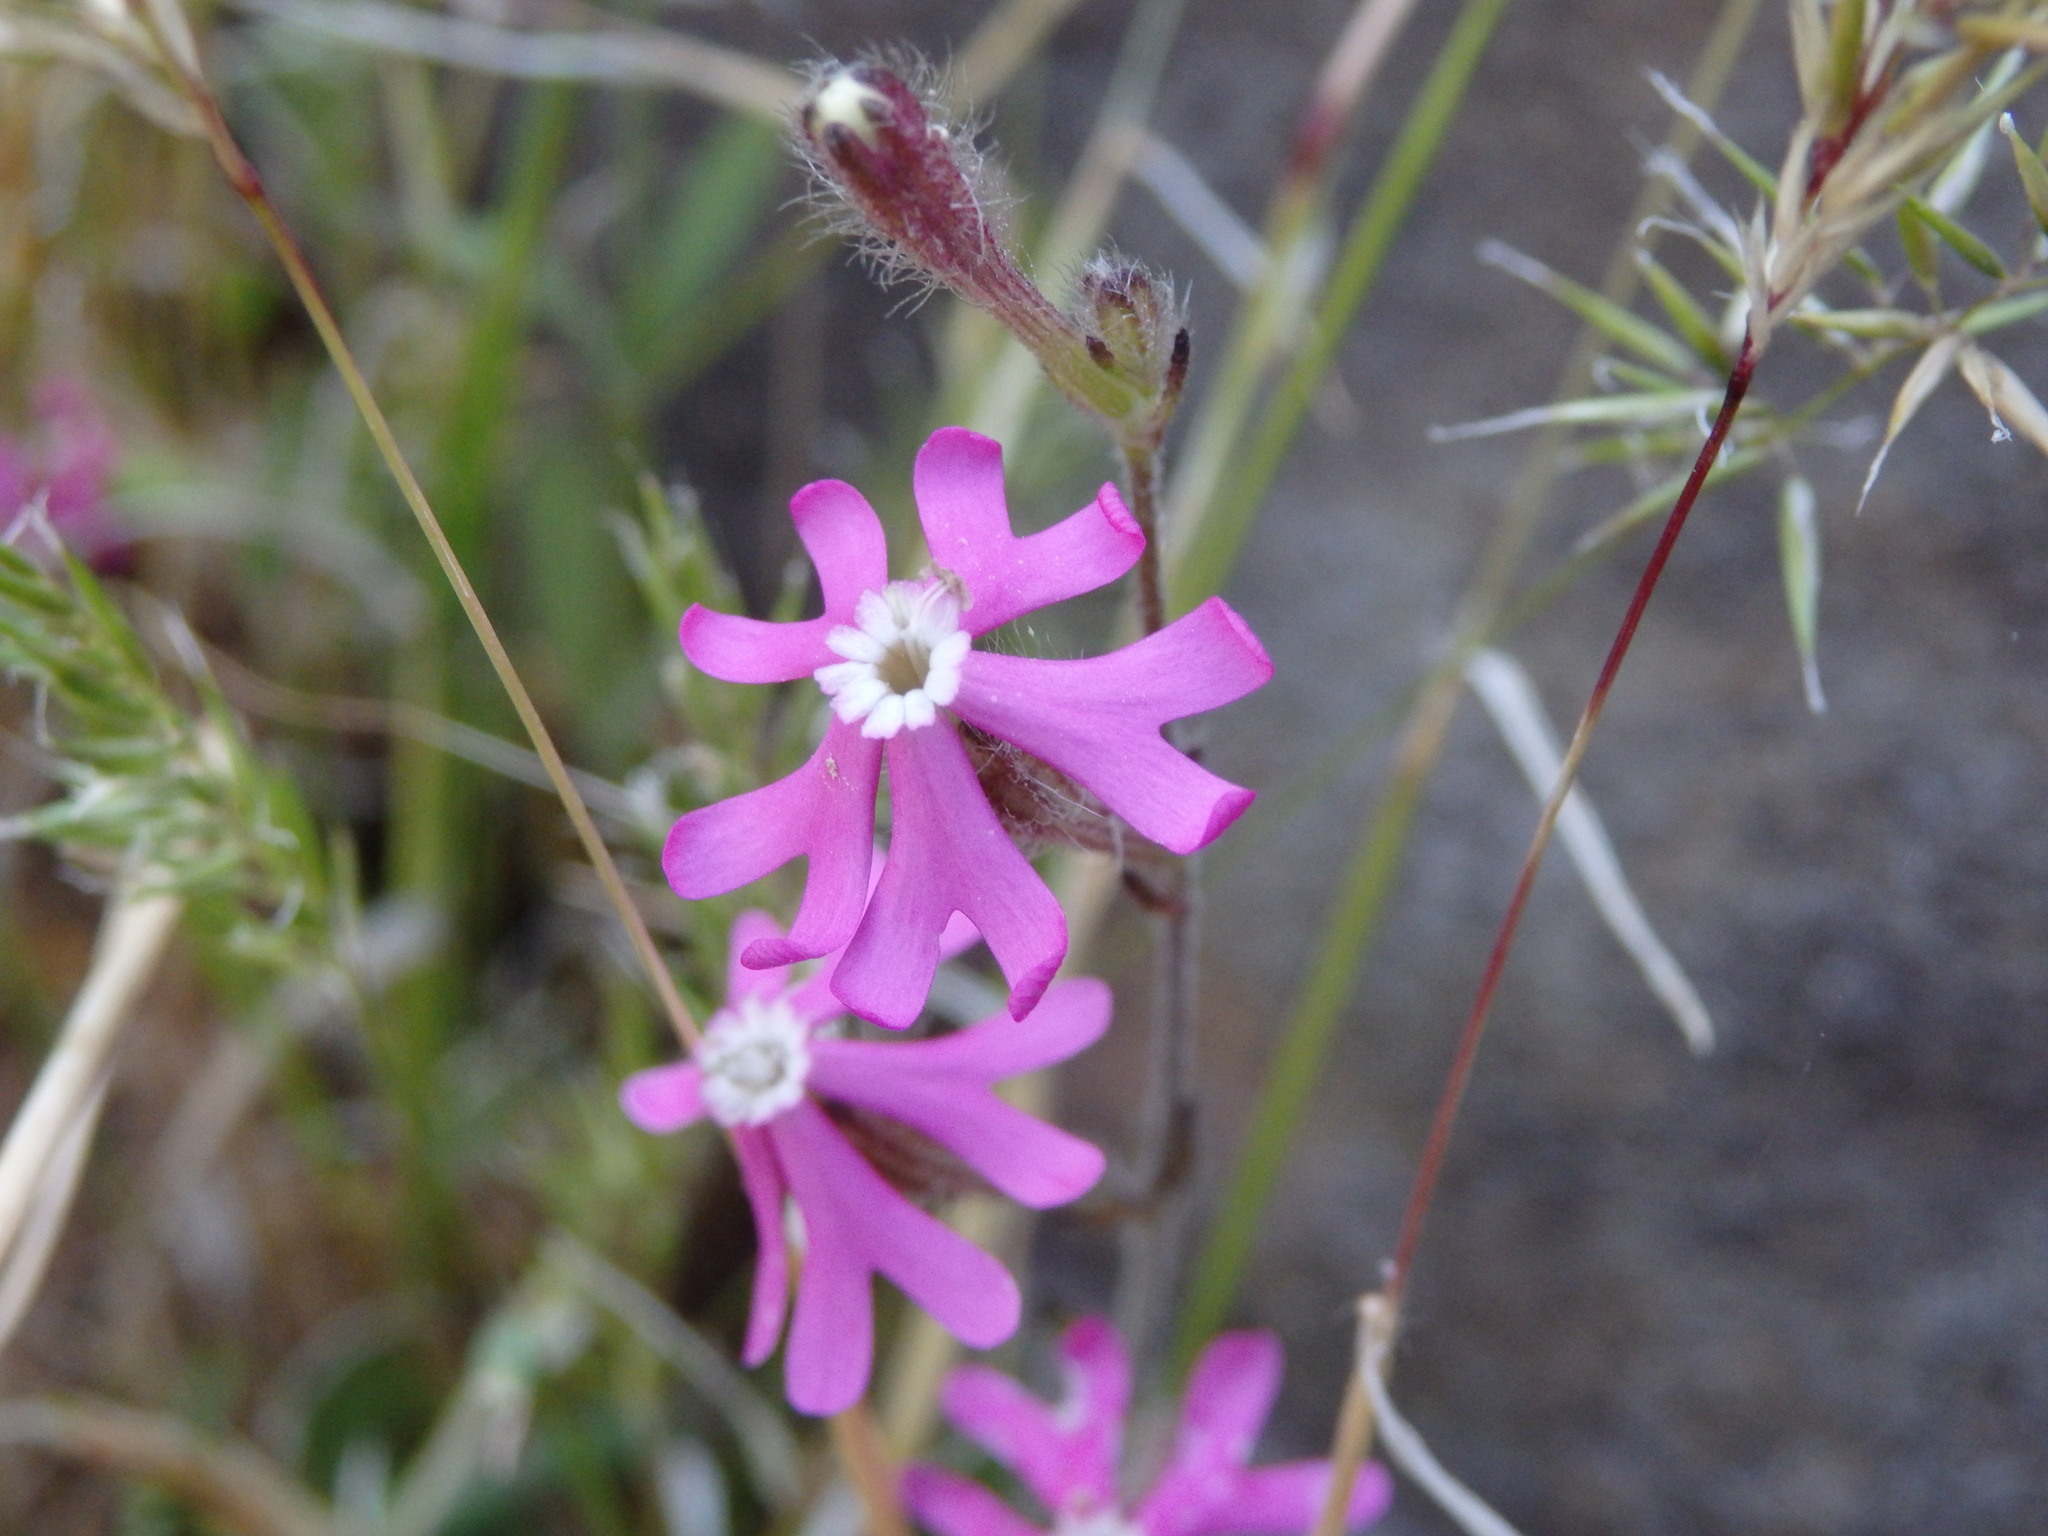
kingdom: Plantae
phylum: Tracheophyta
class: Magnoliopsida
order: Caryophyllales
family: Caryophyllaceae
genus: Silene
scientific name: Silene scabriflora
